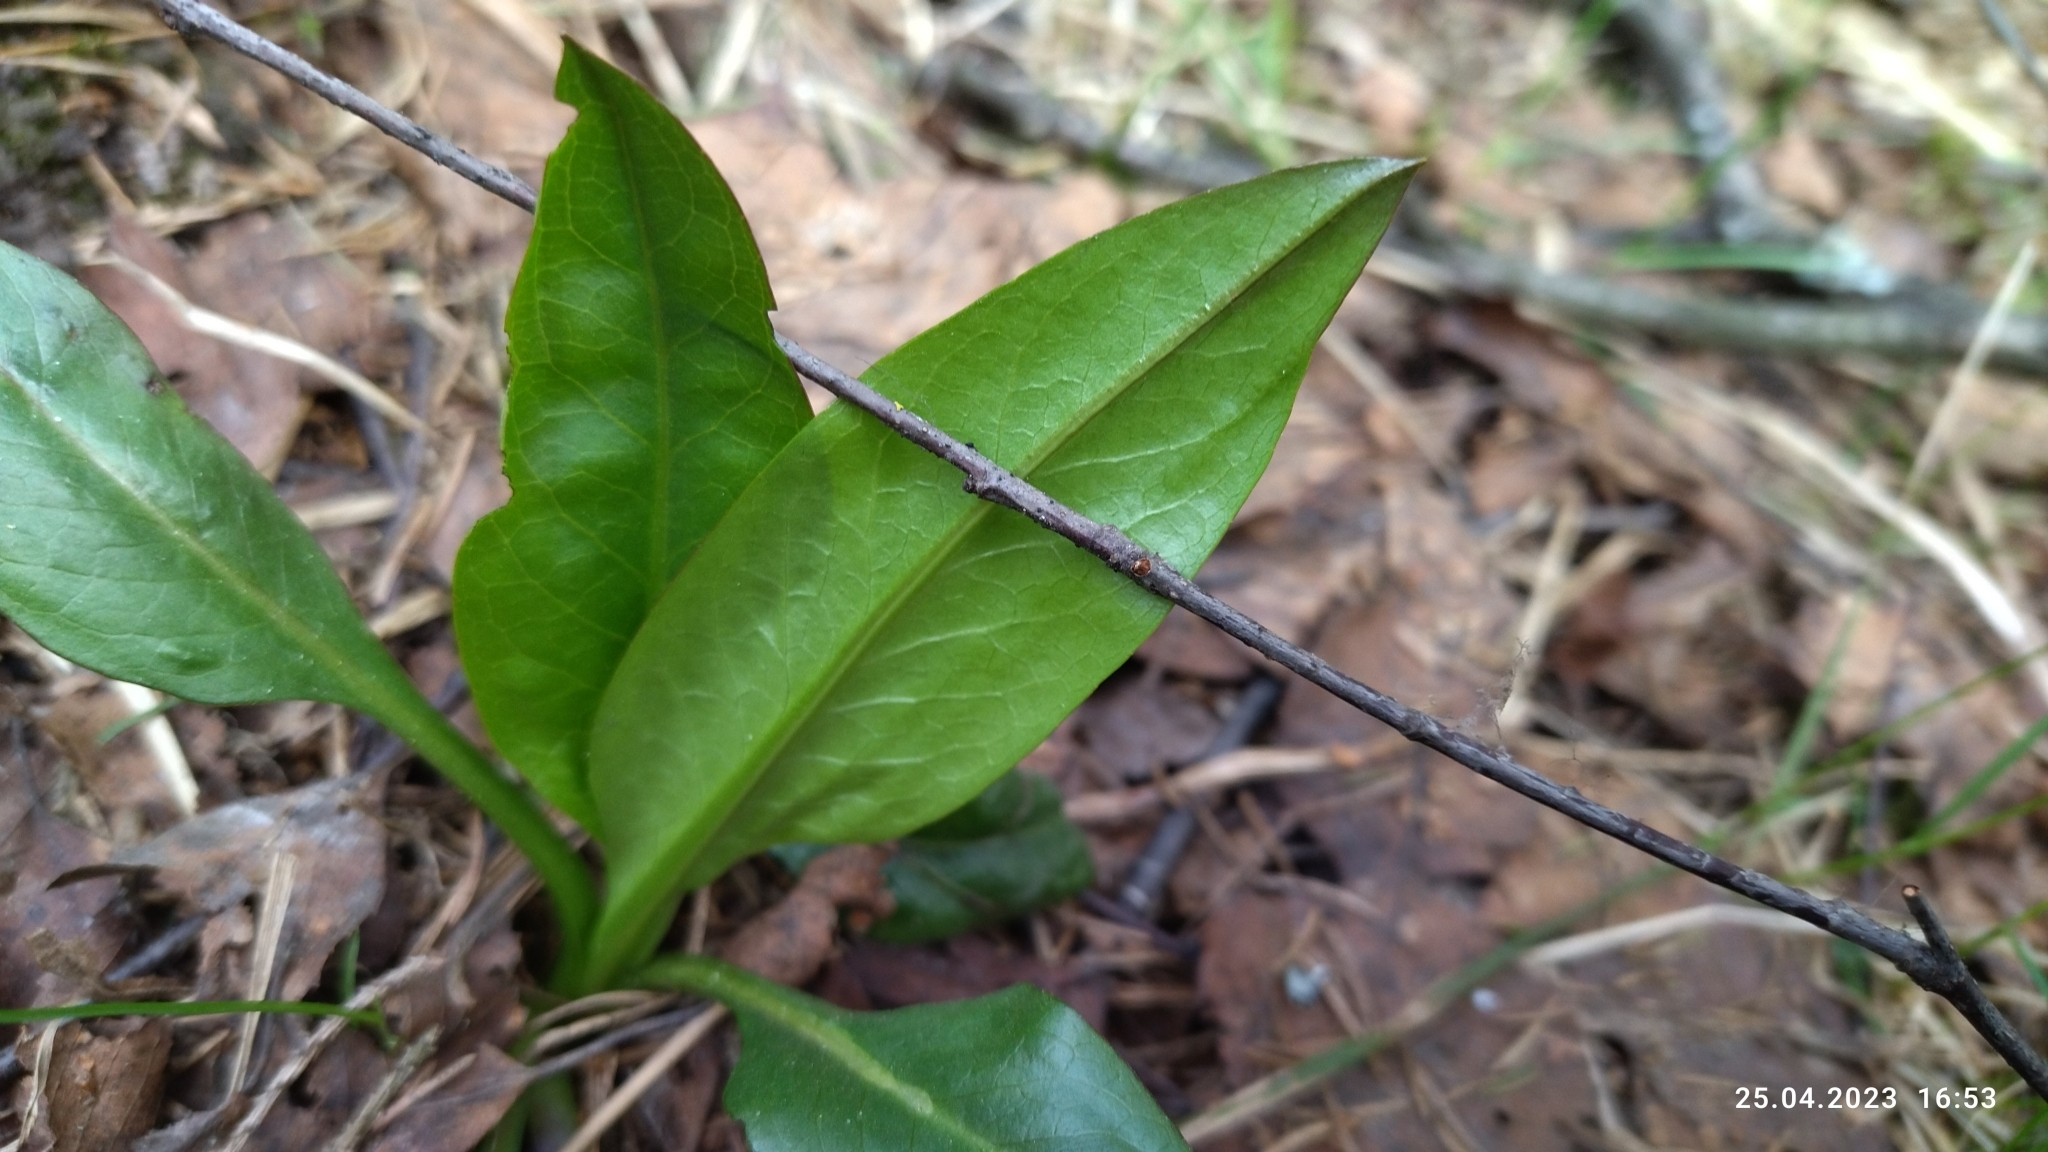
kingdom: Plantae
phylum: Tracheophyta
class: Magnoliopsida
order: Dipsacales
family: Caprifoliaceae
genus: Succisa
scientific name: Succisa pratensis
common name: Devil's-bit
